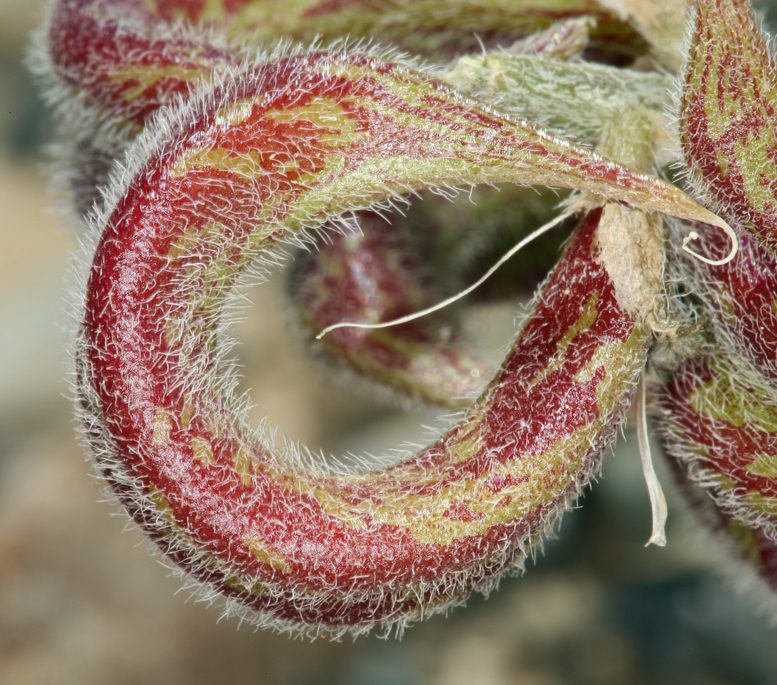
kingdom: Plantae
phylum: Tracheophyta
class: Magnoliopsida
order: Fabales
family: Fabaceae
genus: Astragalus
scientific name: Astragalus layneae
